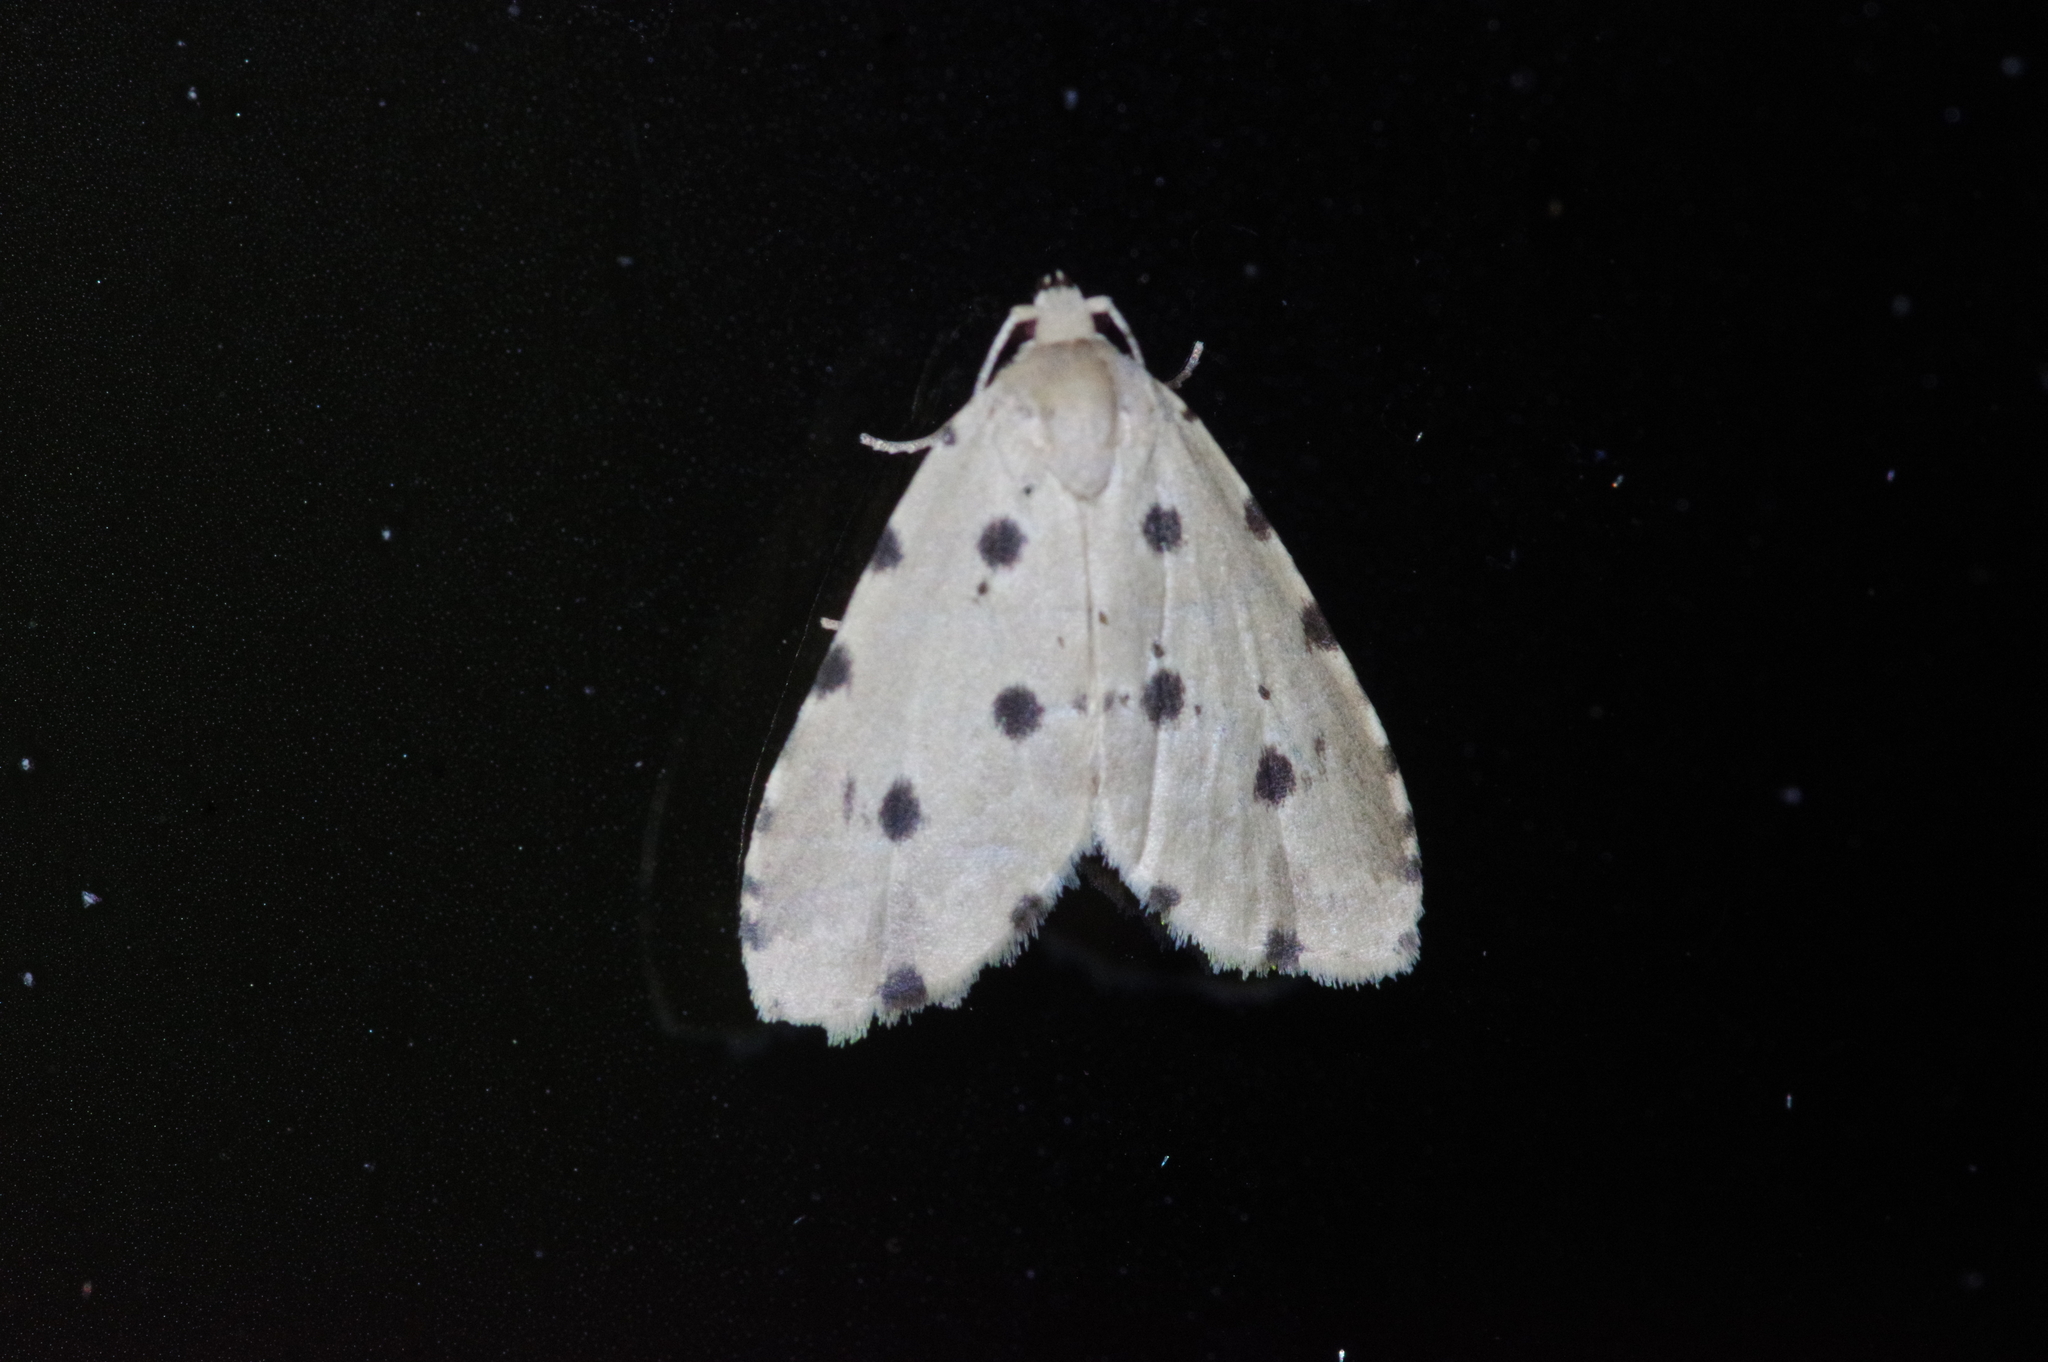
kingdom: Animalia
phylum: Arthropoda
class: Insecta
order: Lepidoptera
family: Noctuidae
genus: Metaemene
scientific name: Metaemene atrigutta
